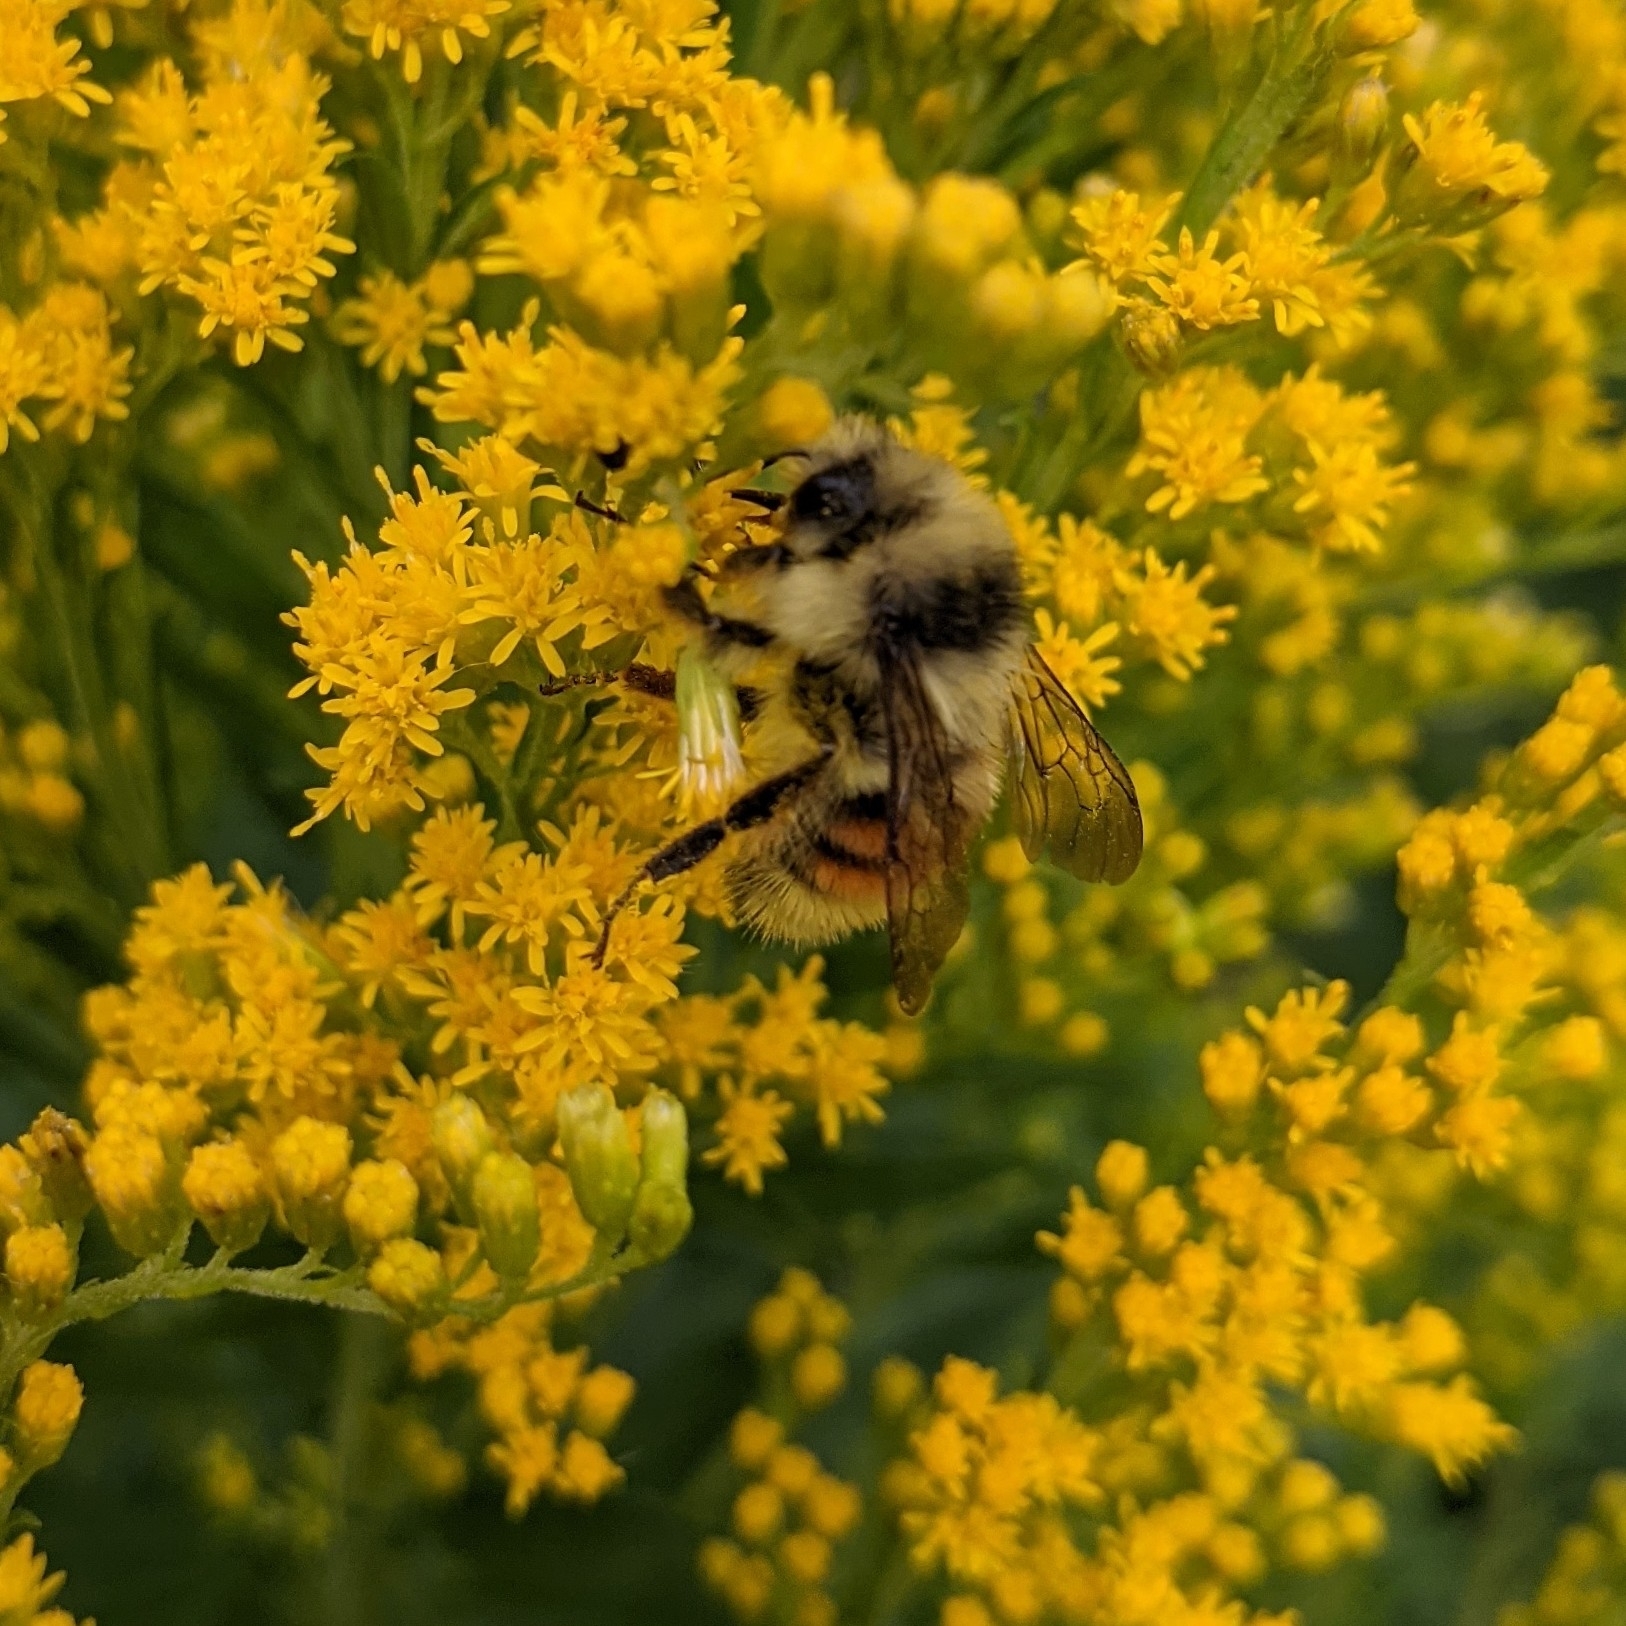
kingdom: Animalia
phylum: Arthropoda
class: Insecta
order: Hymenoptera
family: Apidae
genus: Bombus
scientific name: Bombus vancouverensis
